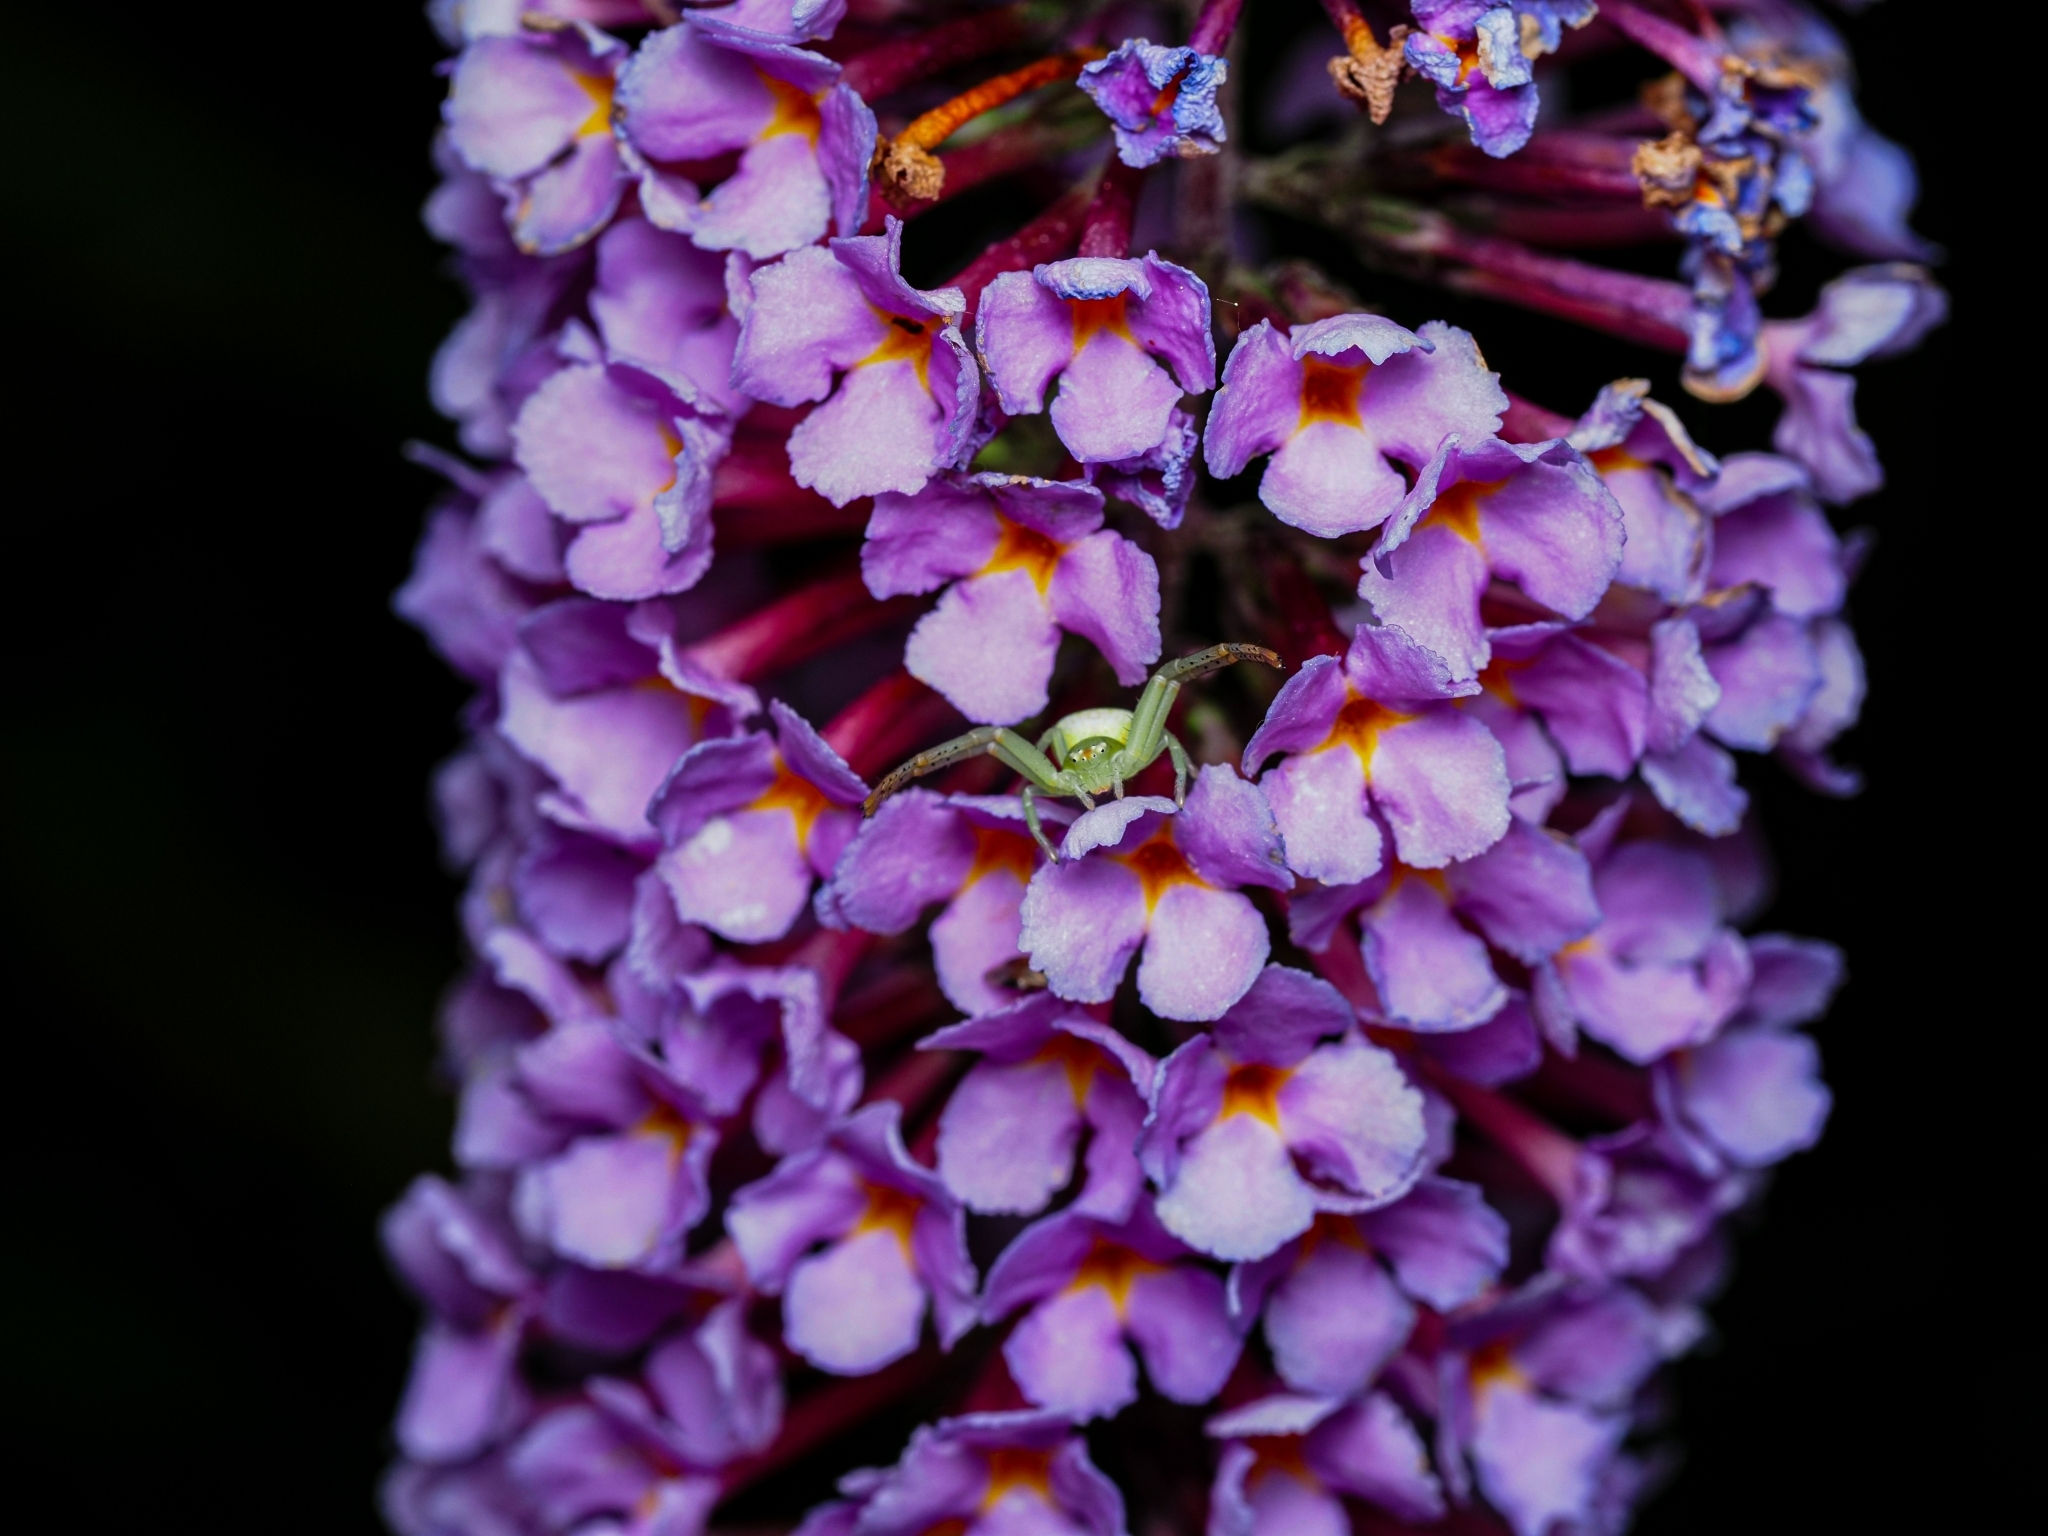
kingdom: Animalia
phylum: Arthropoda
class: Arachnida
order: Araneae
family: Thomisidae
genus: Ebrechtella
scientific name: Ebrechtella tricuspidata
